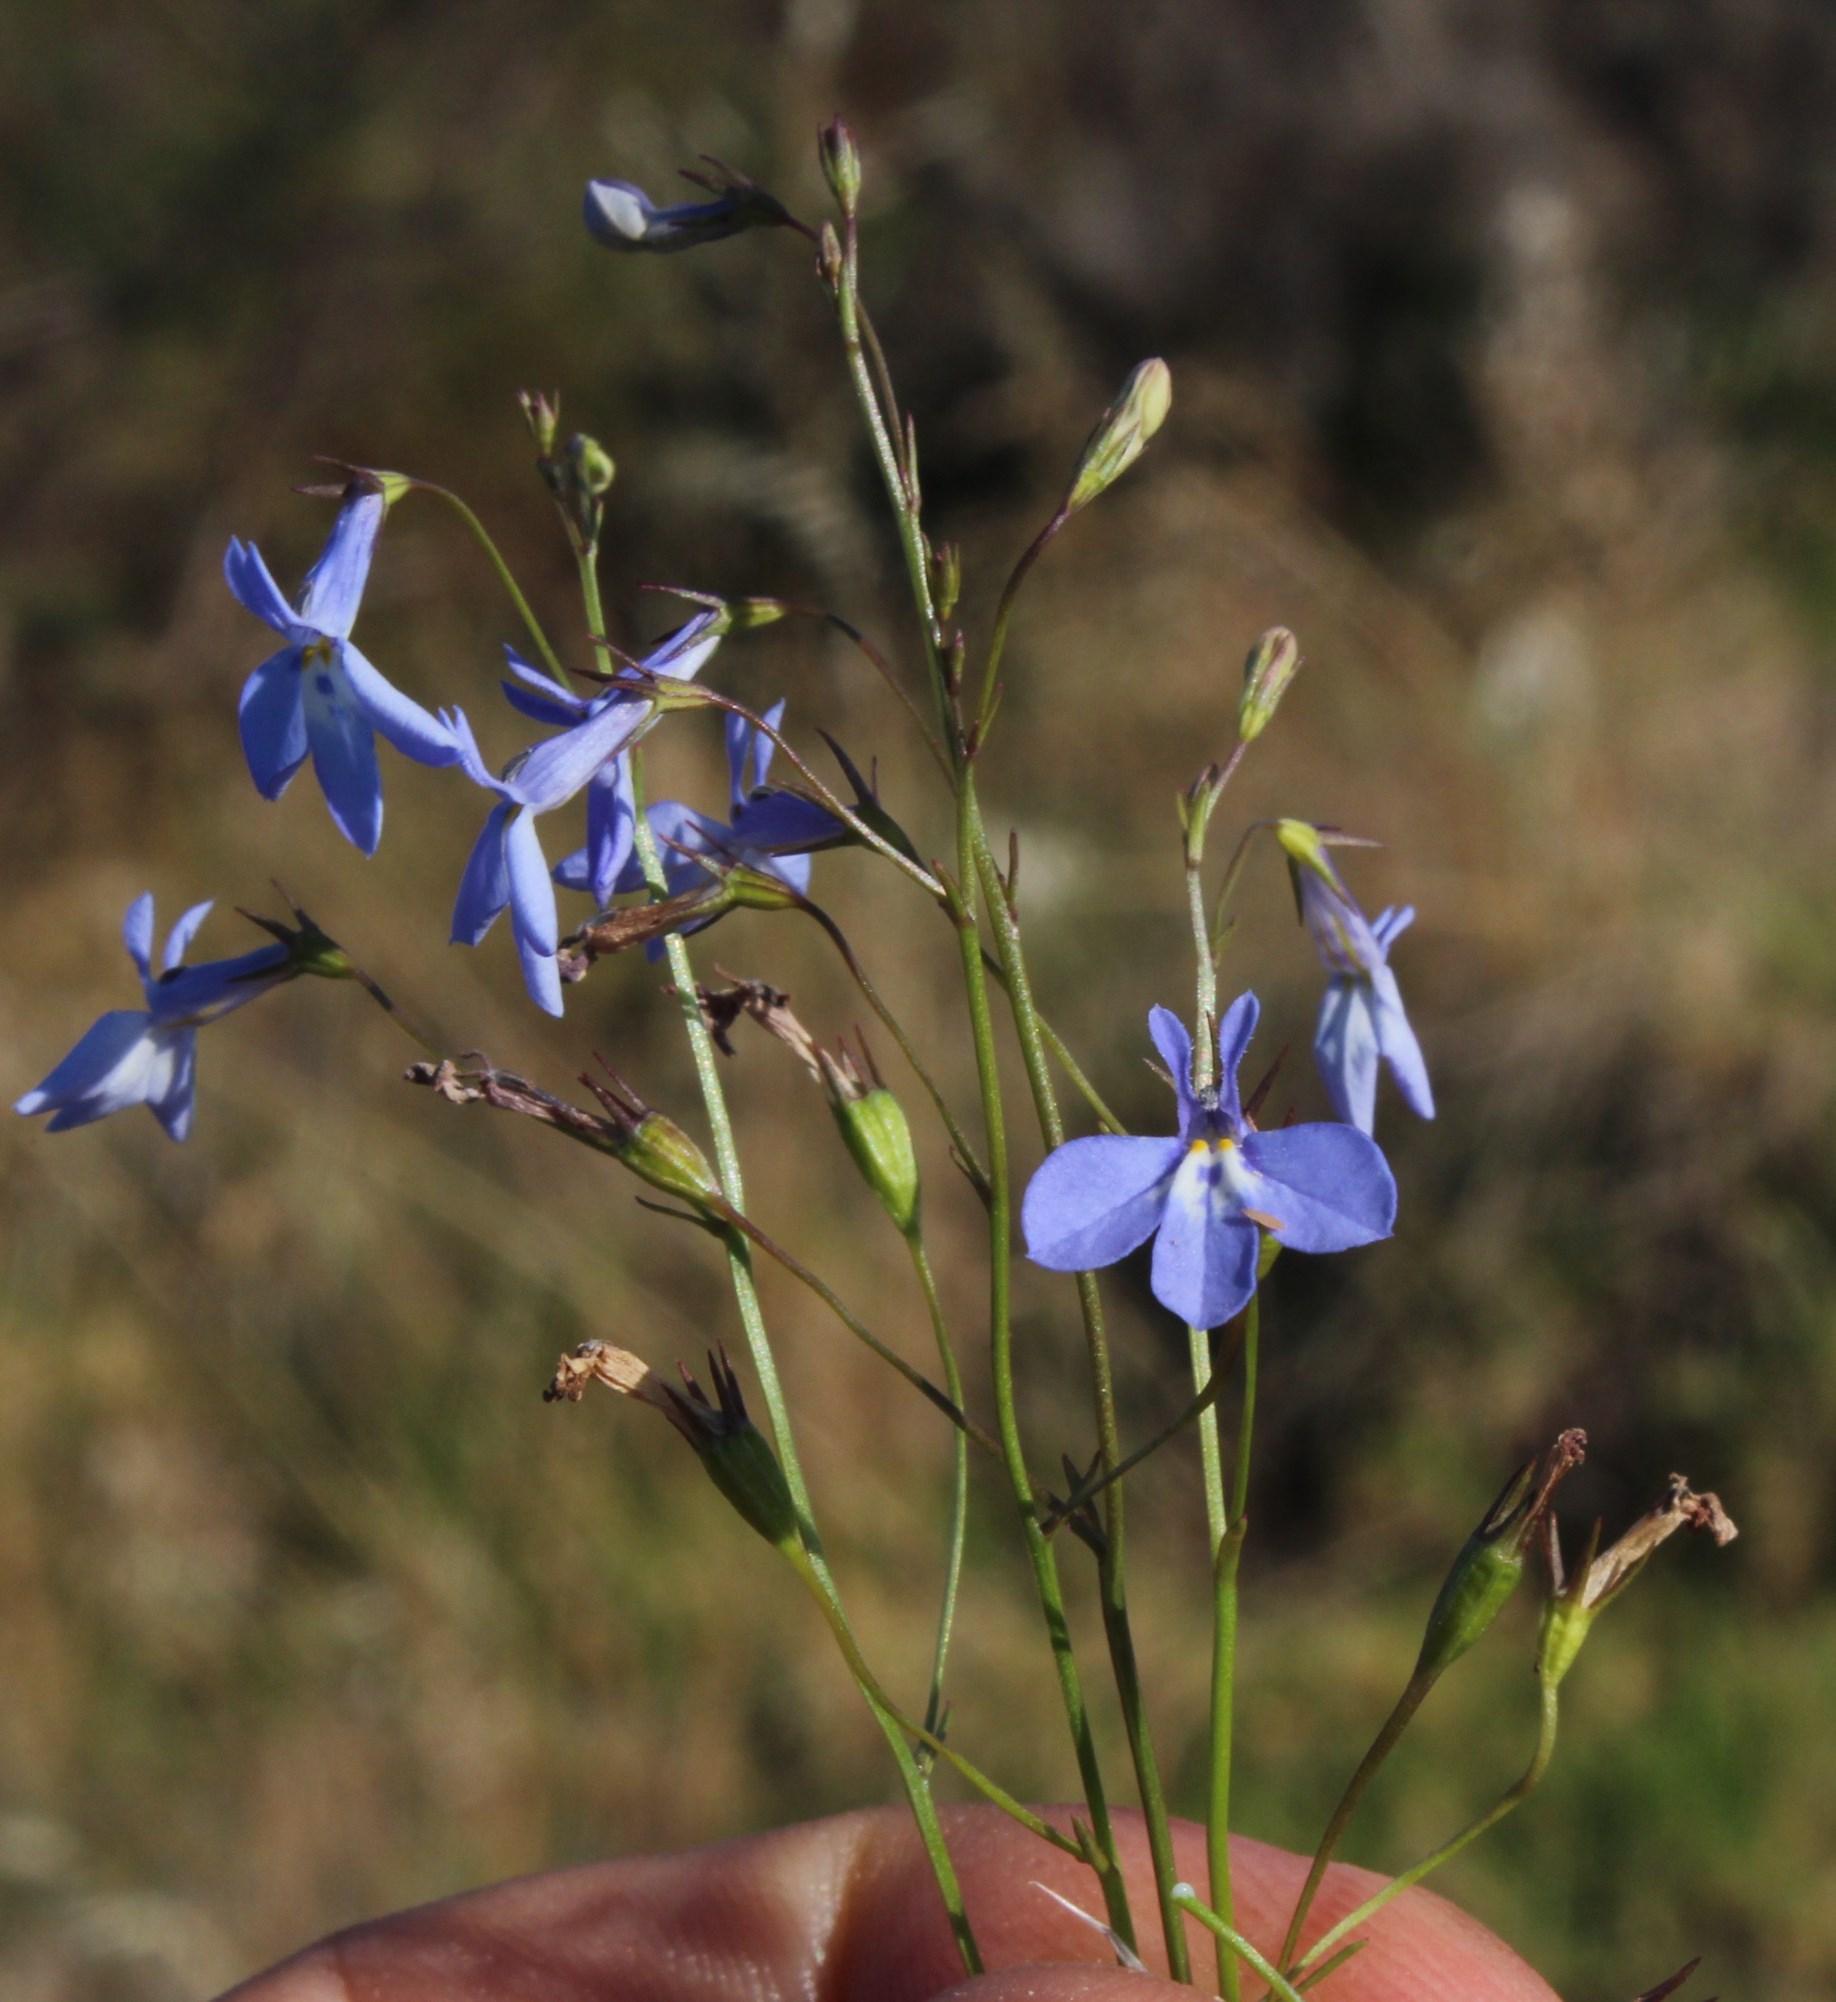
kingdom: Plantae
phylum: Tracheophyta
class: Magnoliopsida
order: Asterales
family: Campanulaceae
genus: Lobelia
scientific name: Lobelia erinus
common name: Edging lobelia
